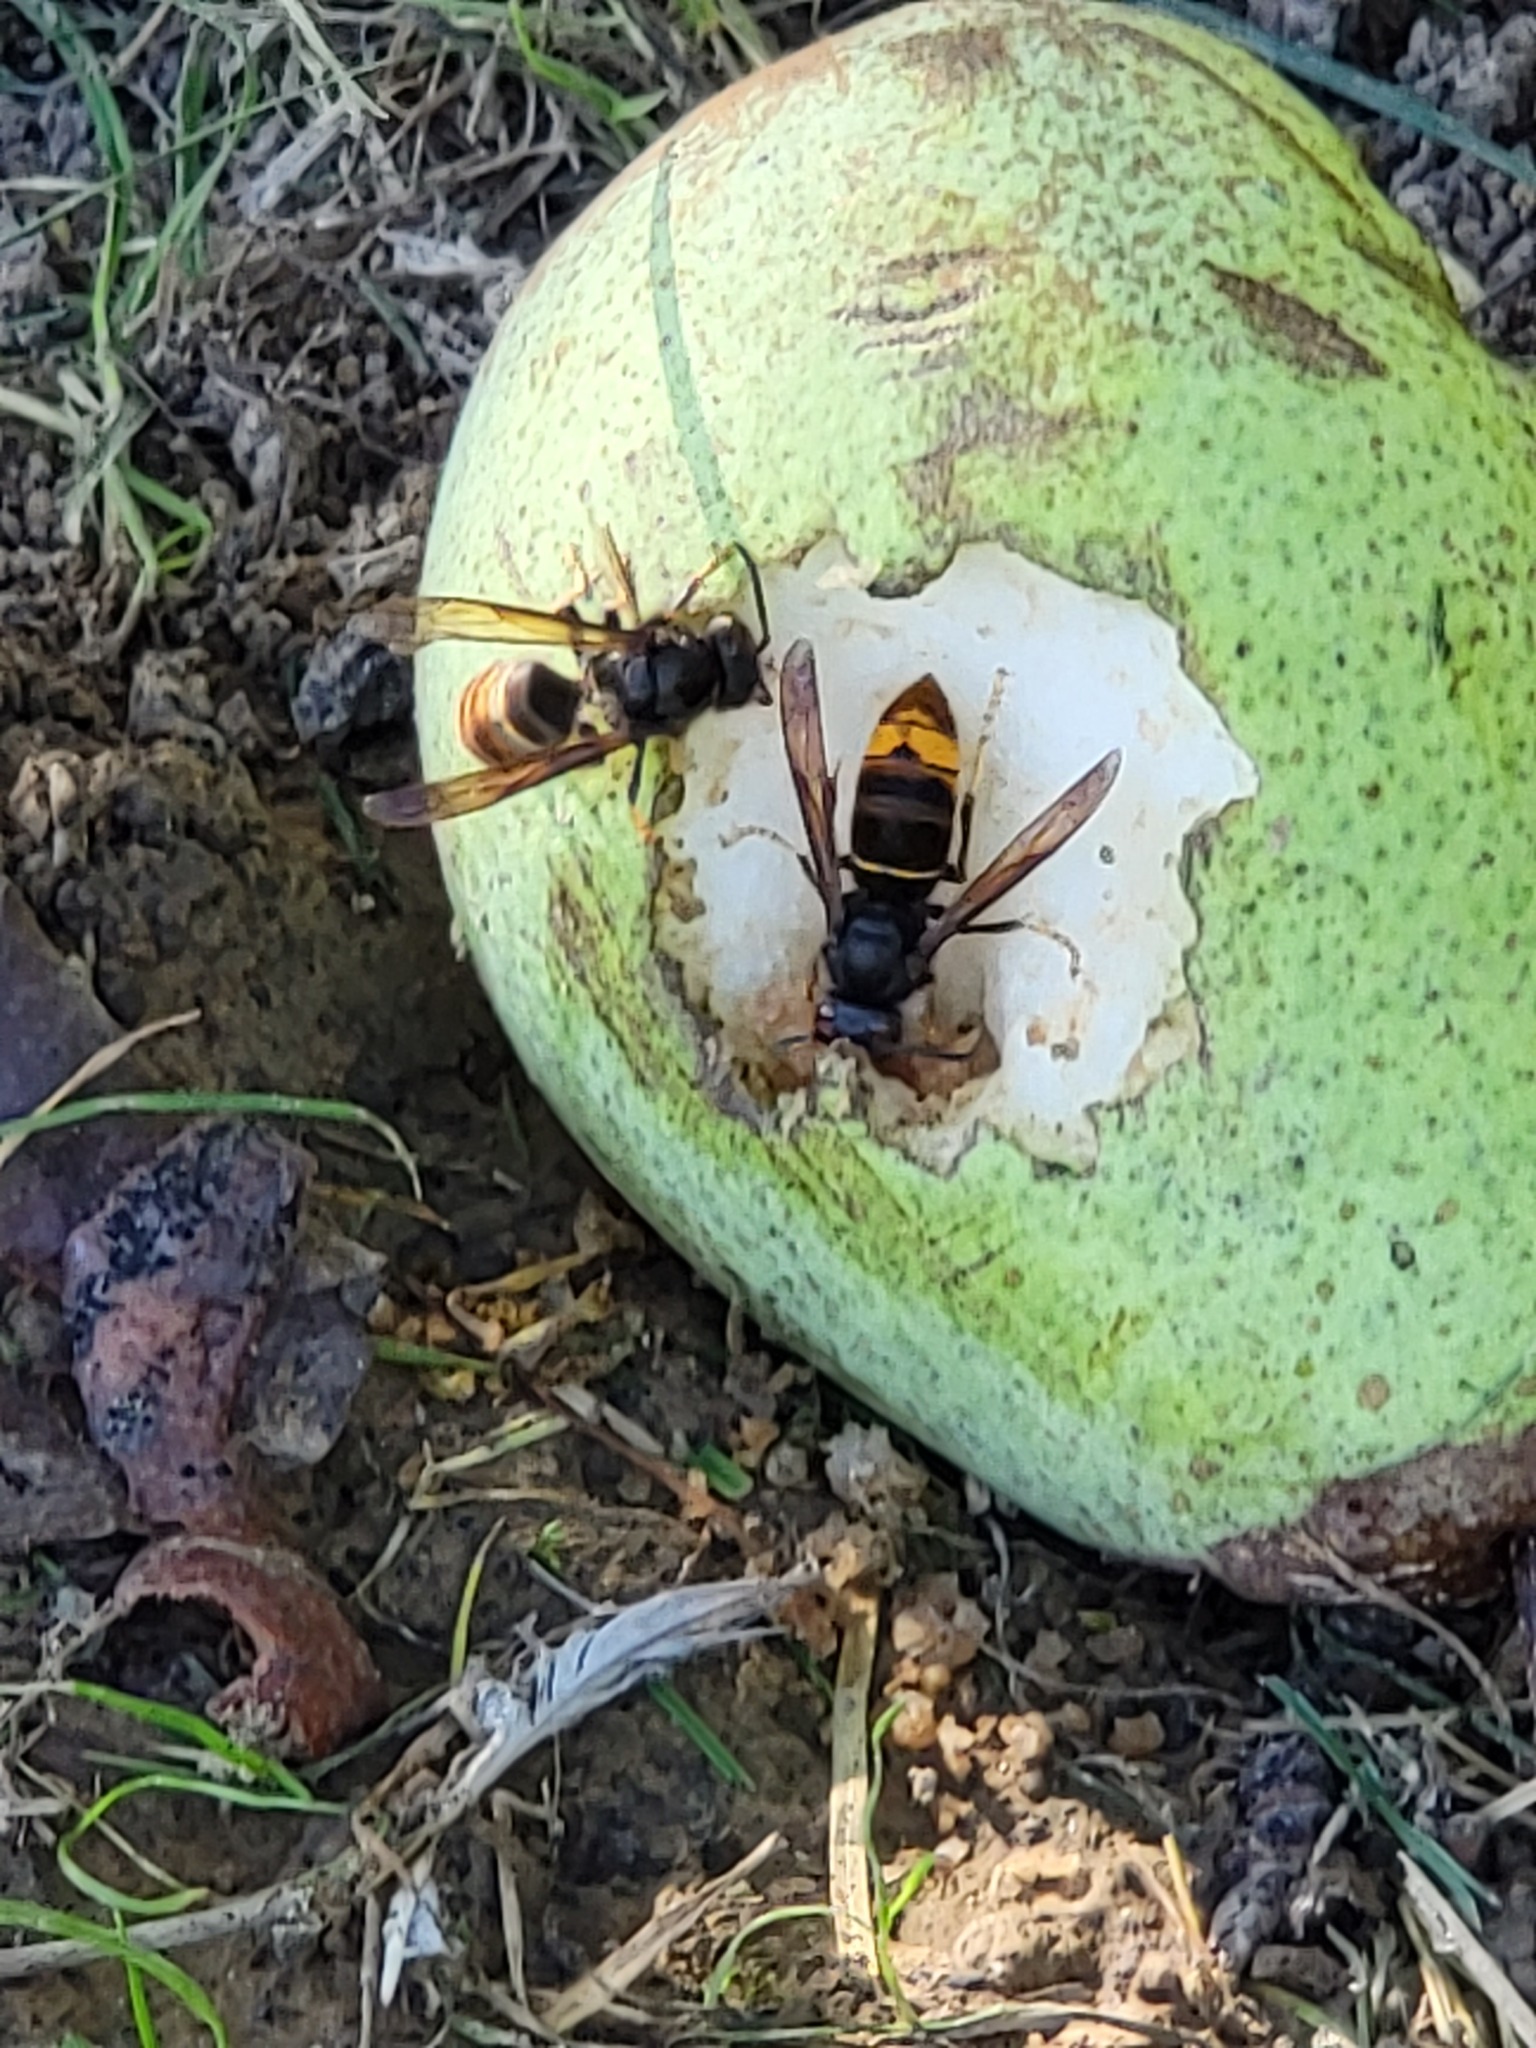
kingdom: Animalia
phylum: Arthropoda
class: Insecta
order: Hymenoptera
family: Vespidae
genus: Vespa
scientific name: Vespa velutina
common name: Asian hornet
